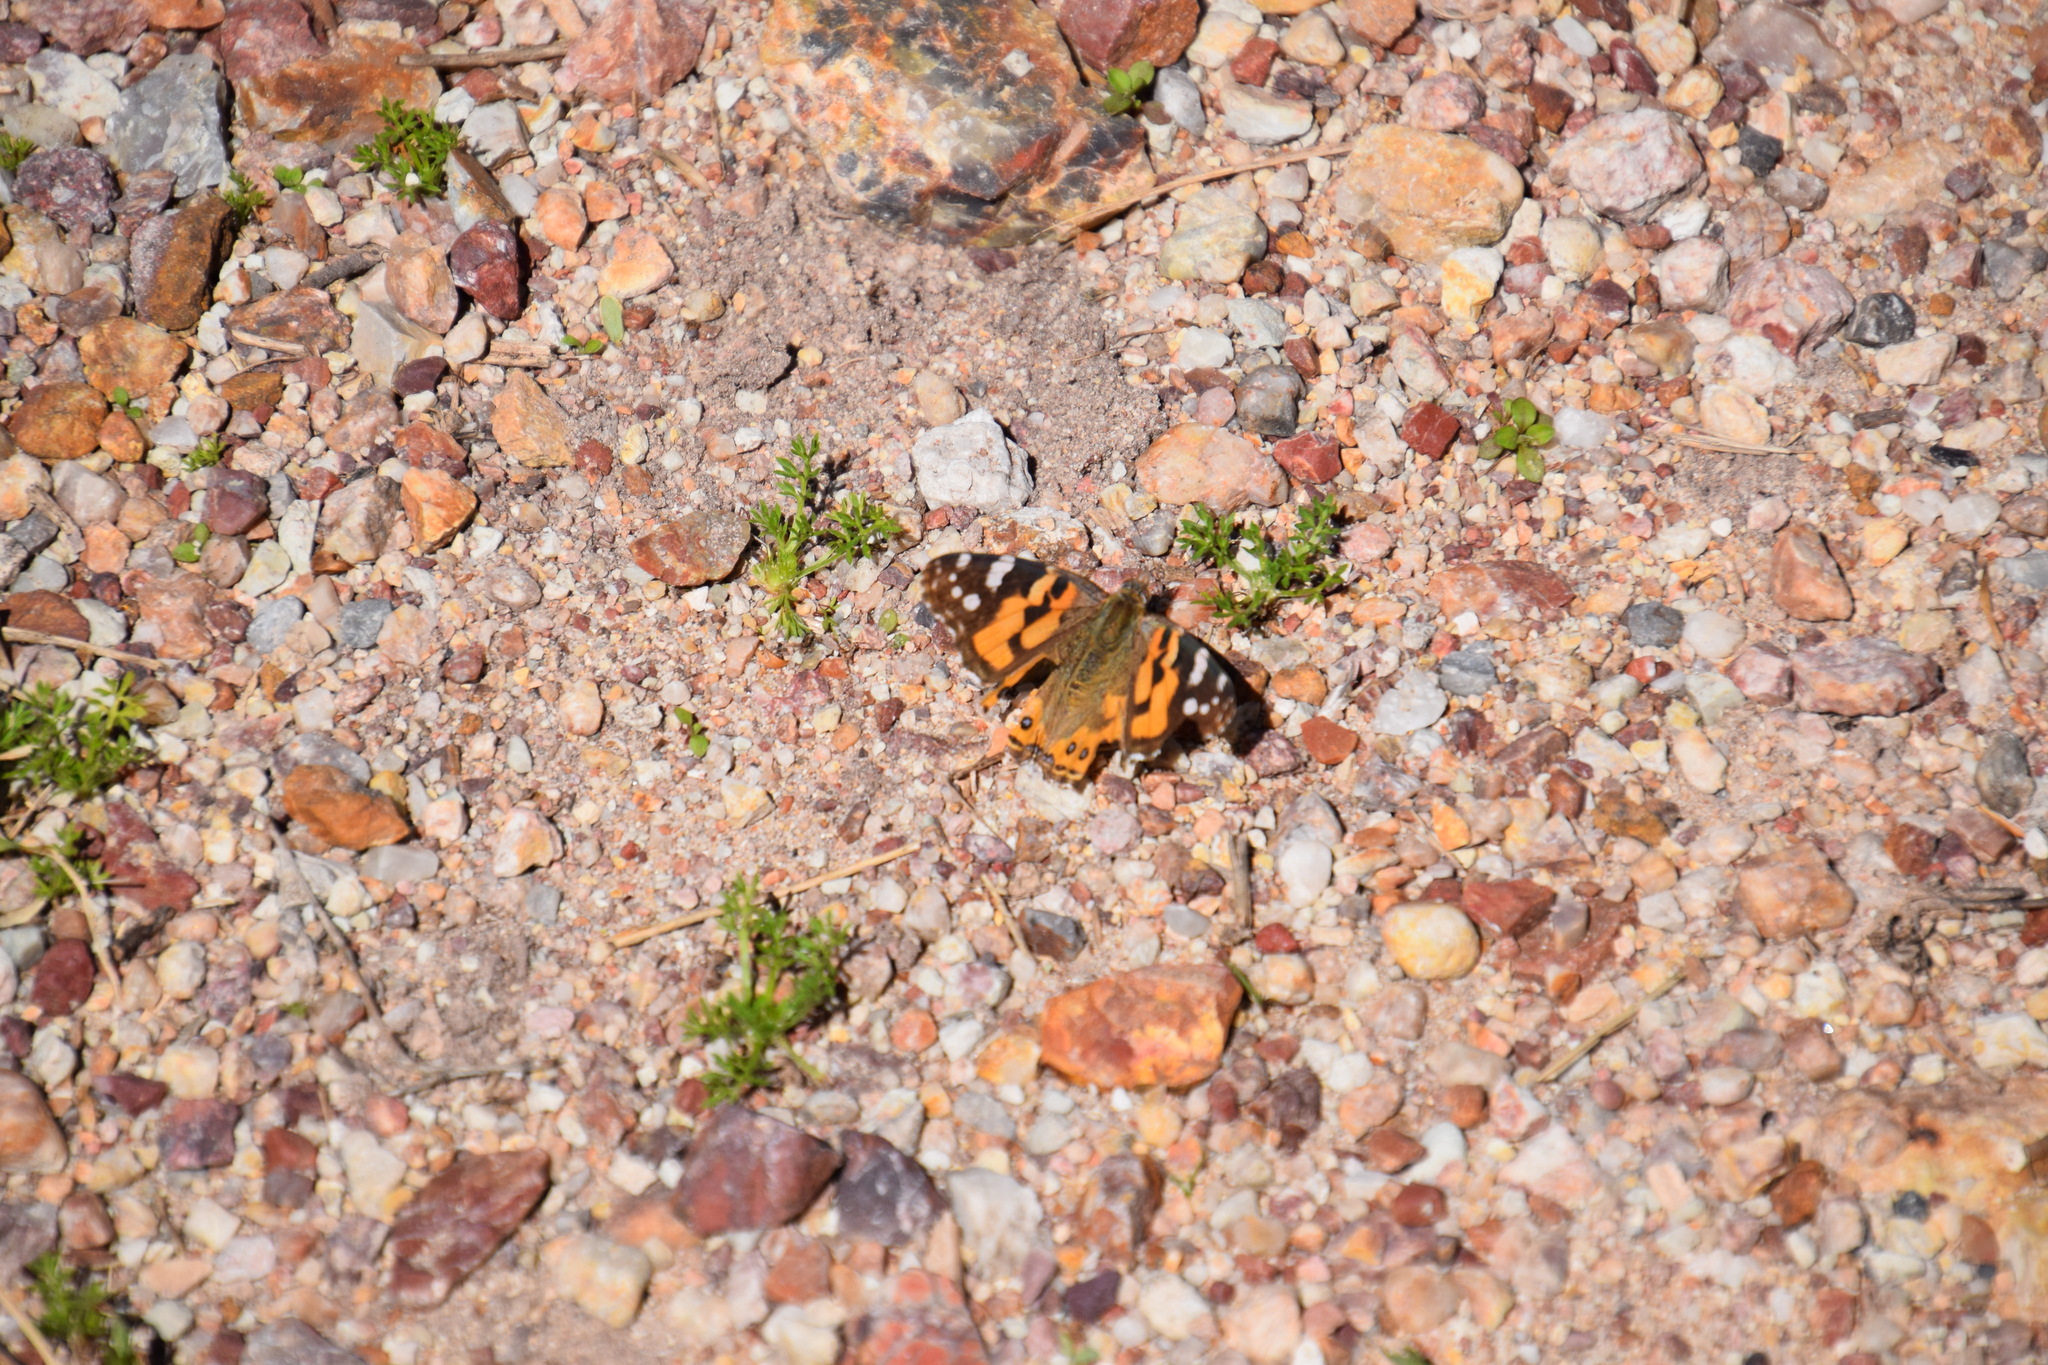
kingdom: Animalia
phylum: Arthropoda
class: Insecta
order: Lepidoptera
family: Nymphalidae
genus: Vanessa
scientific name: Vanessa kershawi
